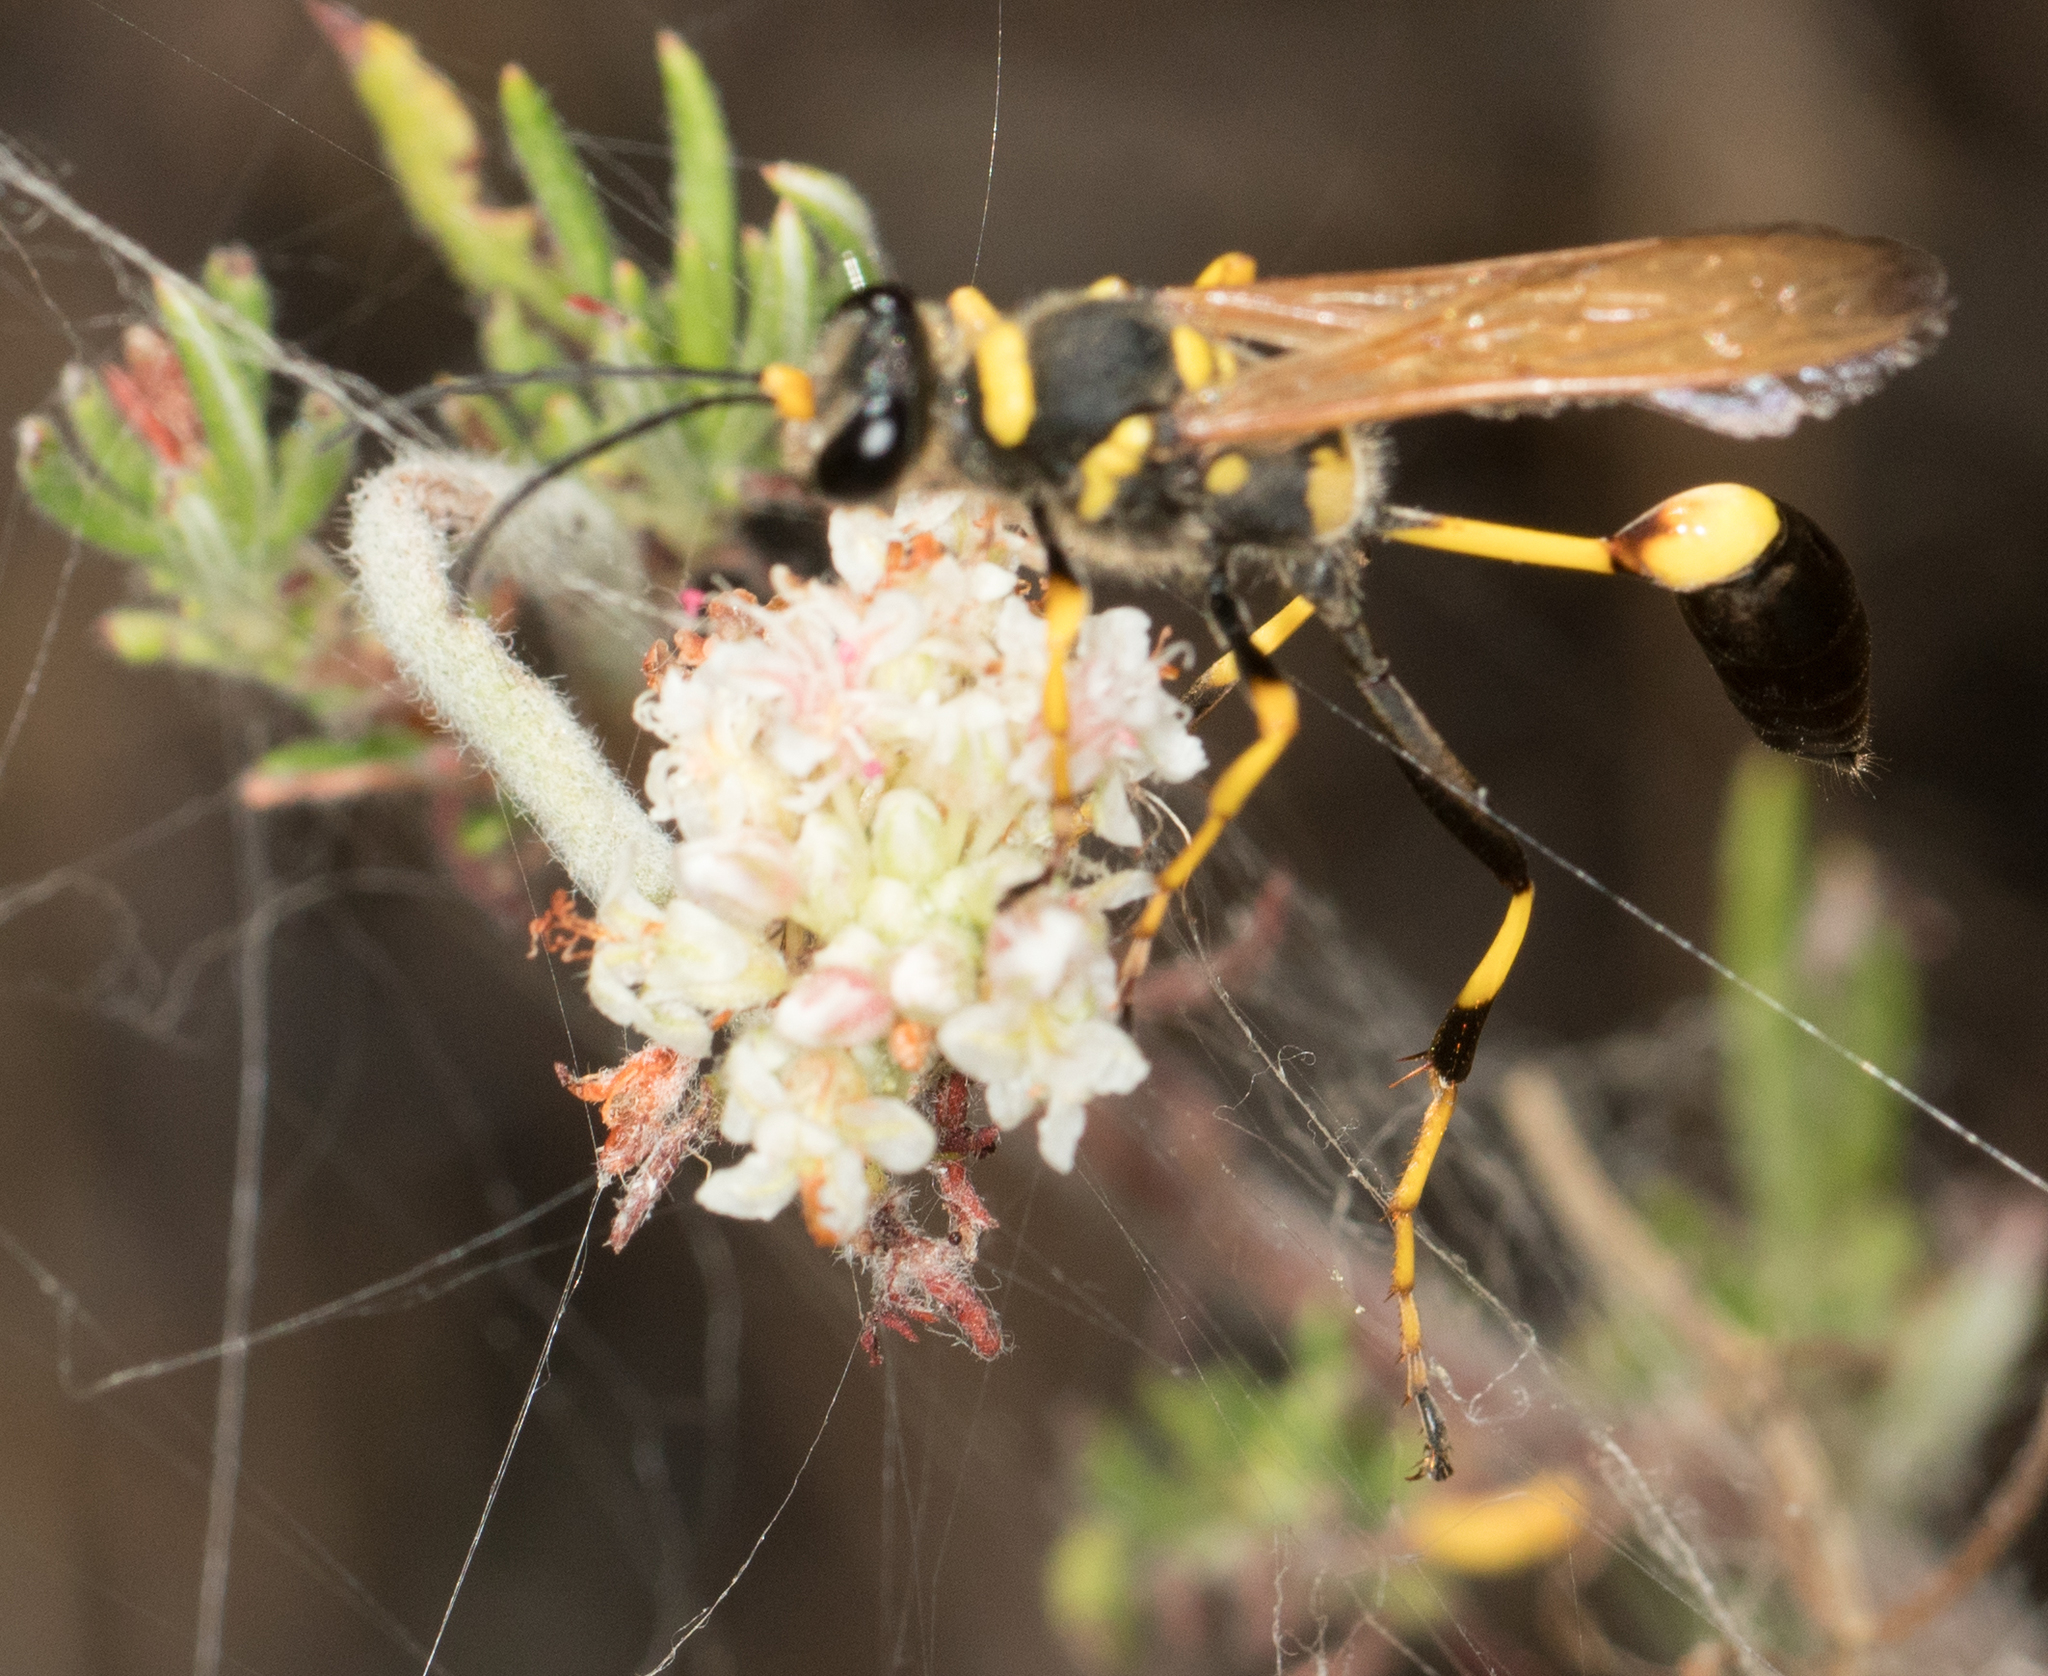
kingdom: Animalia
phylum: Arthropoda
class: Insecta
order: Hymenoptera
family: Sphecidae
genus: Sceliphron
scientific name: Sceliphron caementarium
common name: Mud dauber
